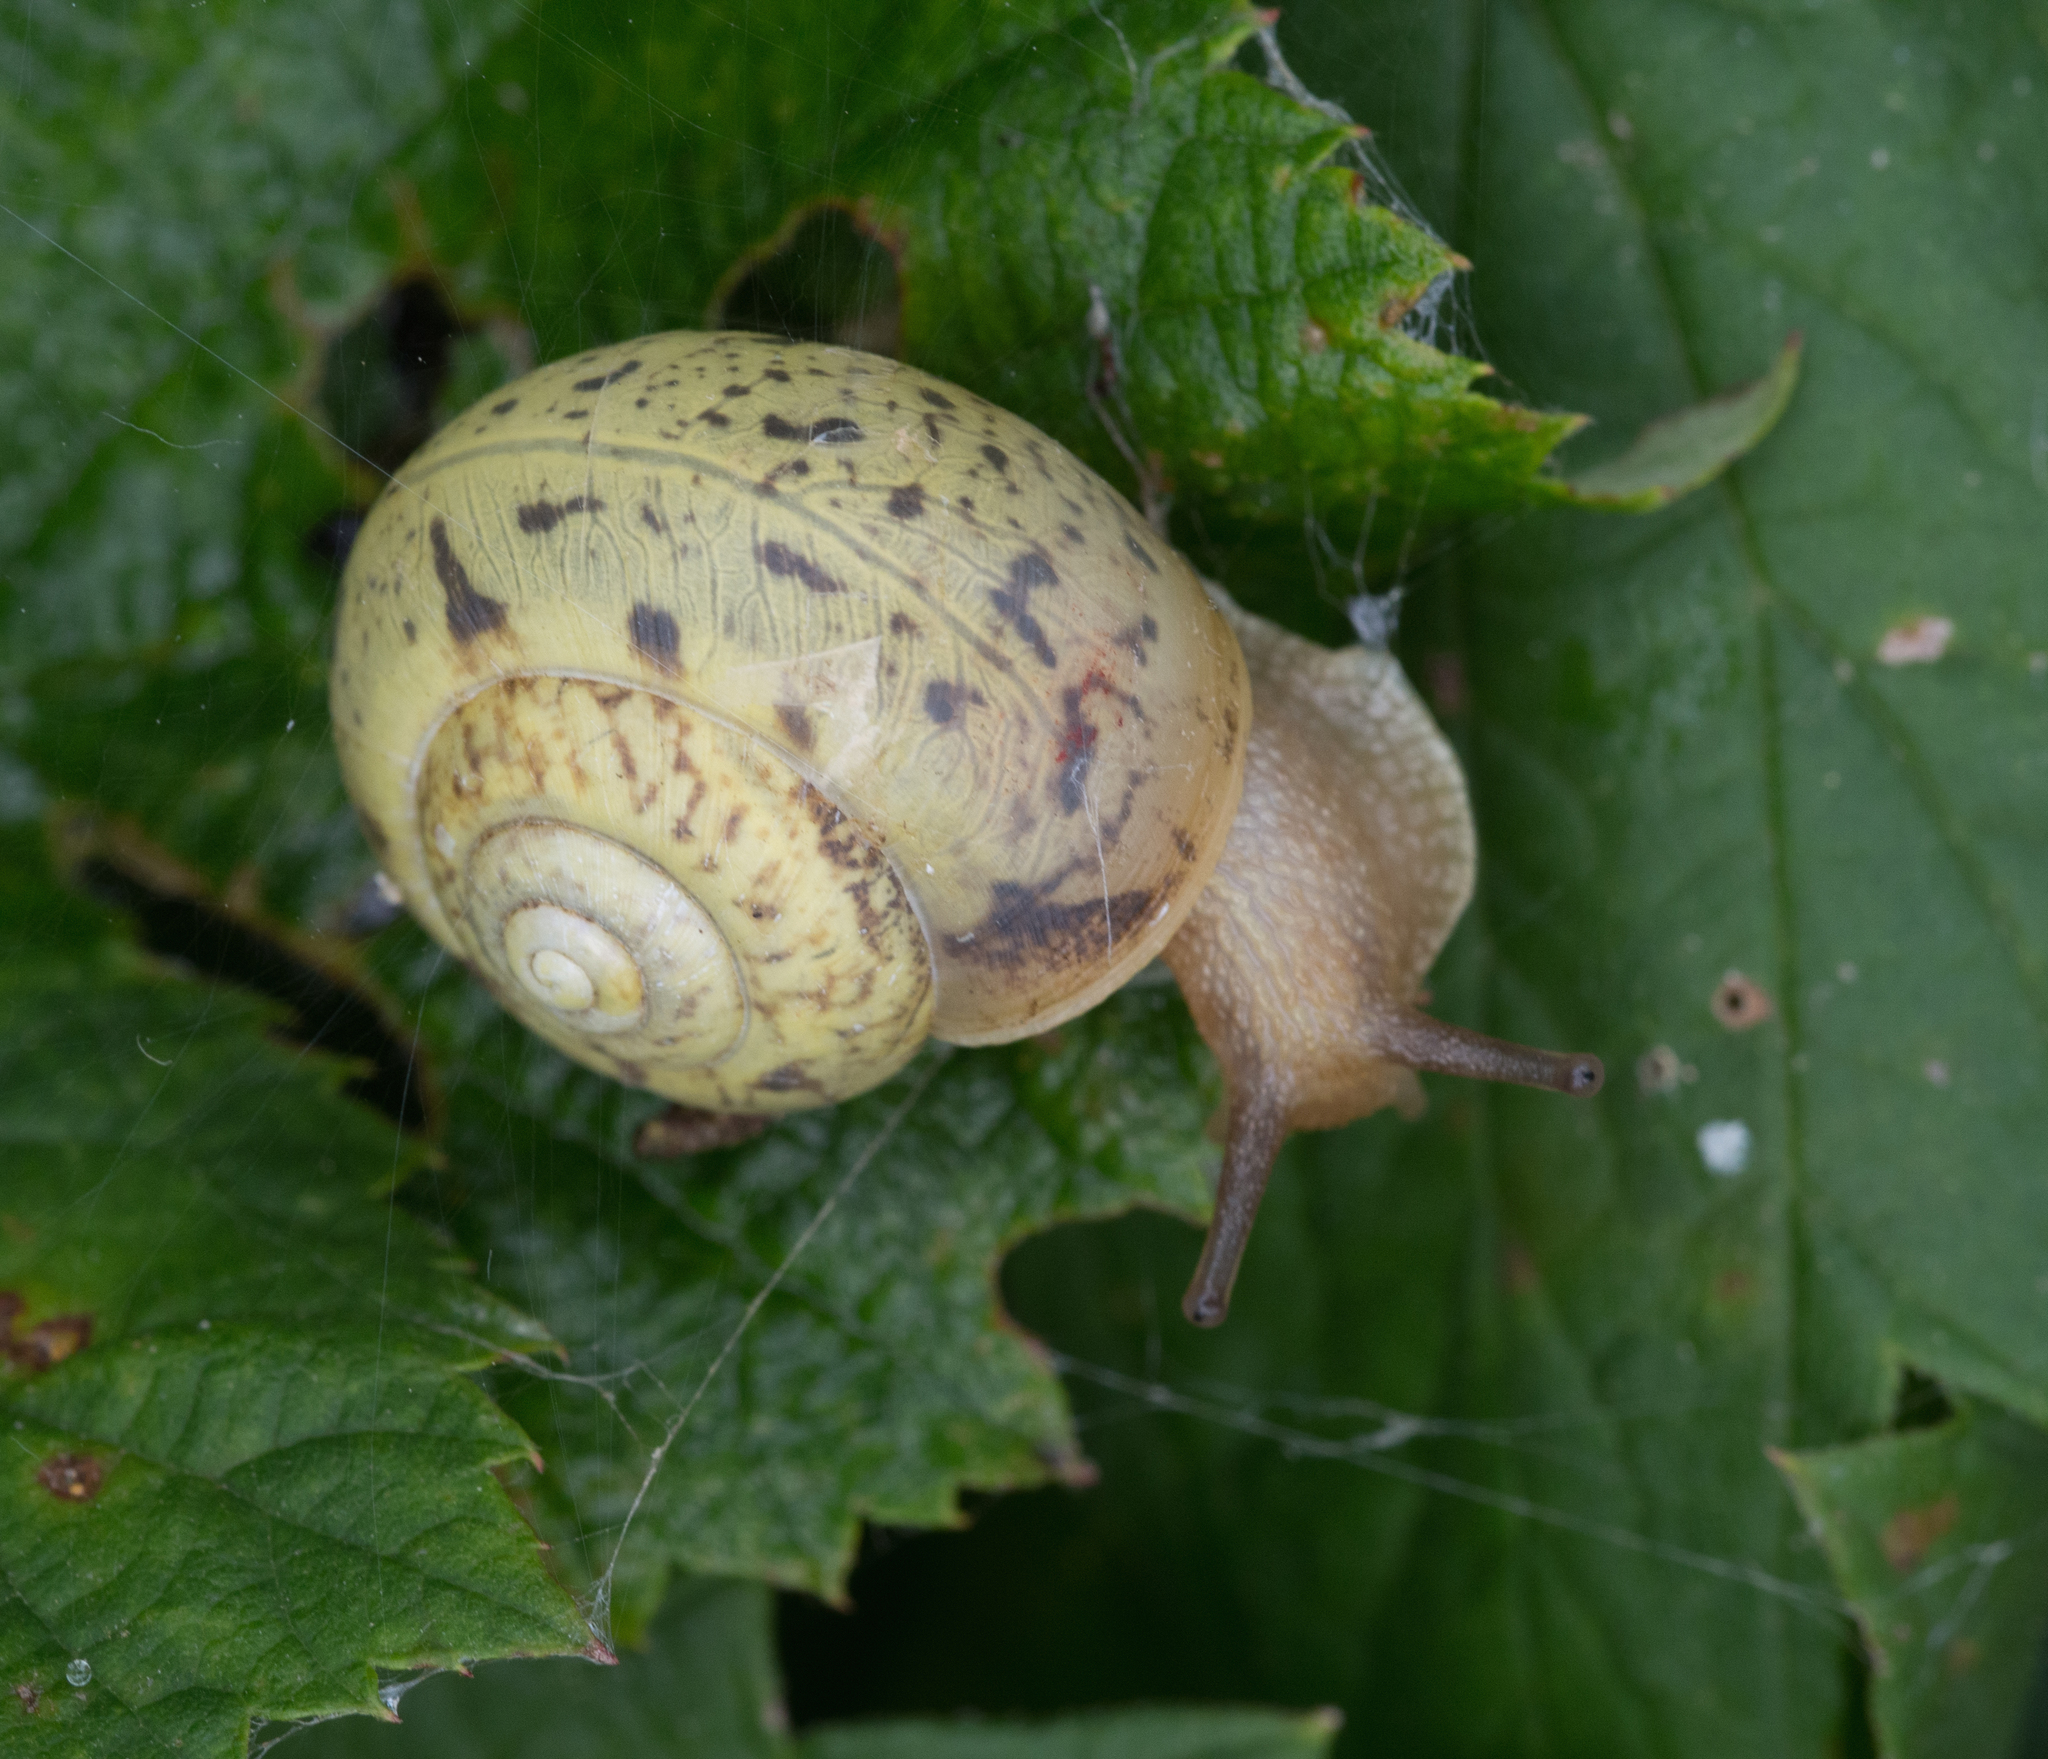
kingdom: Animalia
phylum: Mollusca
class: Gastropoda
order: Stylommatophora
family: Camaenidae
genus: Fruticicola
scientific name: Fruticicola fruticum
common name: Bush snail
